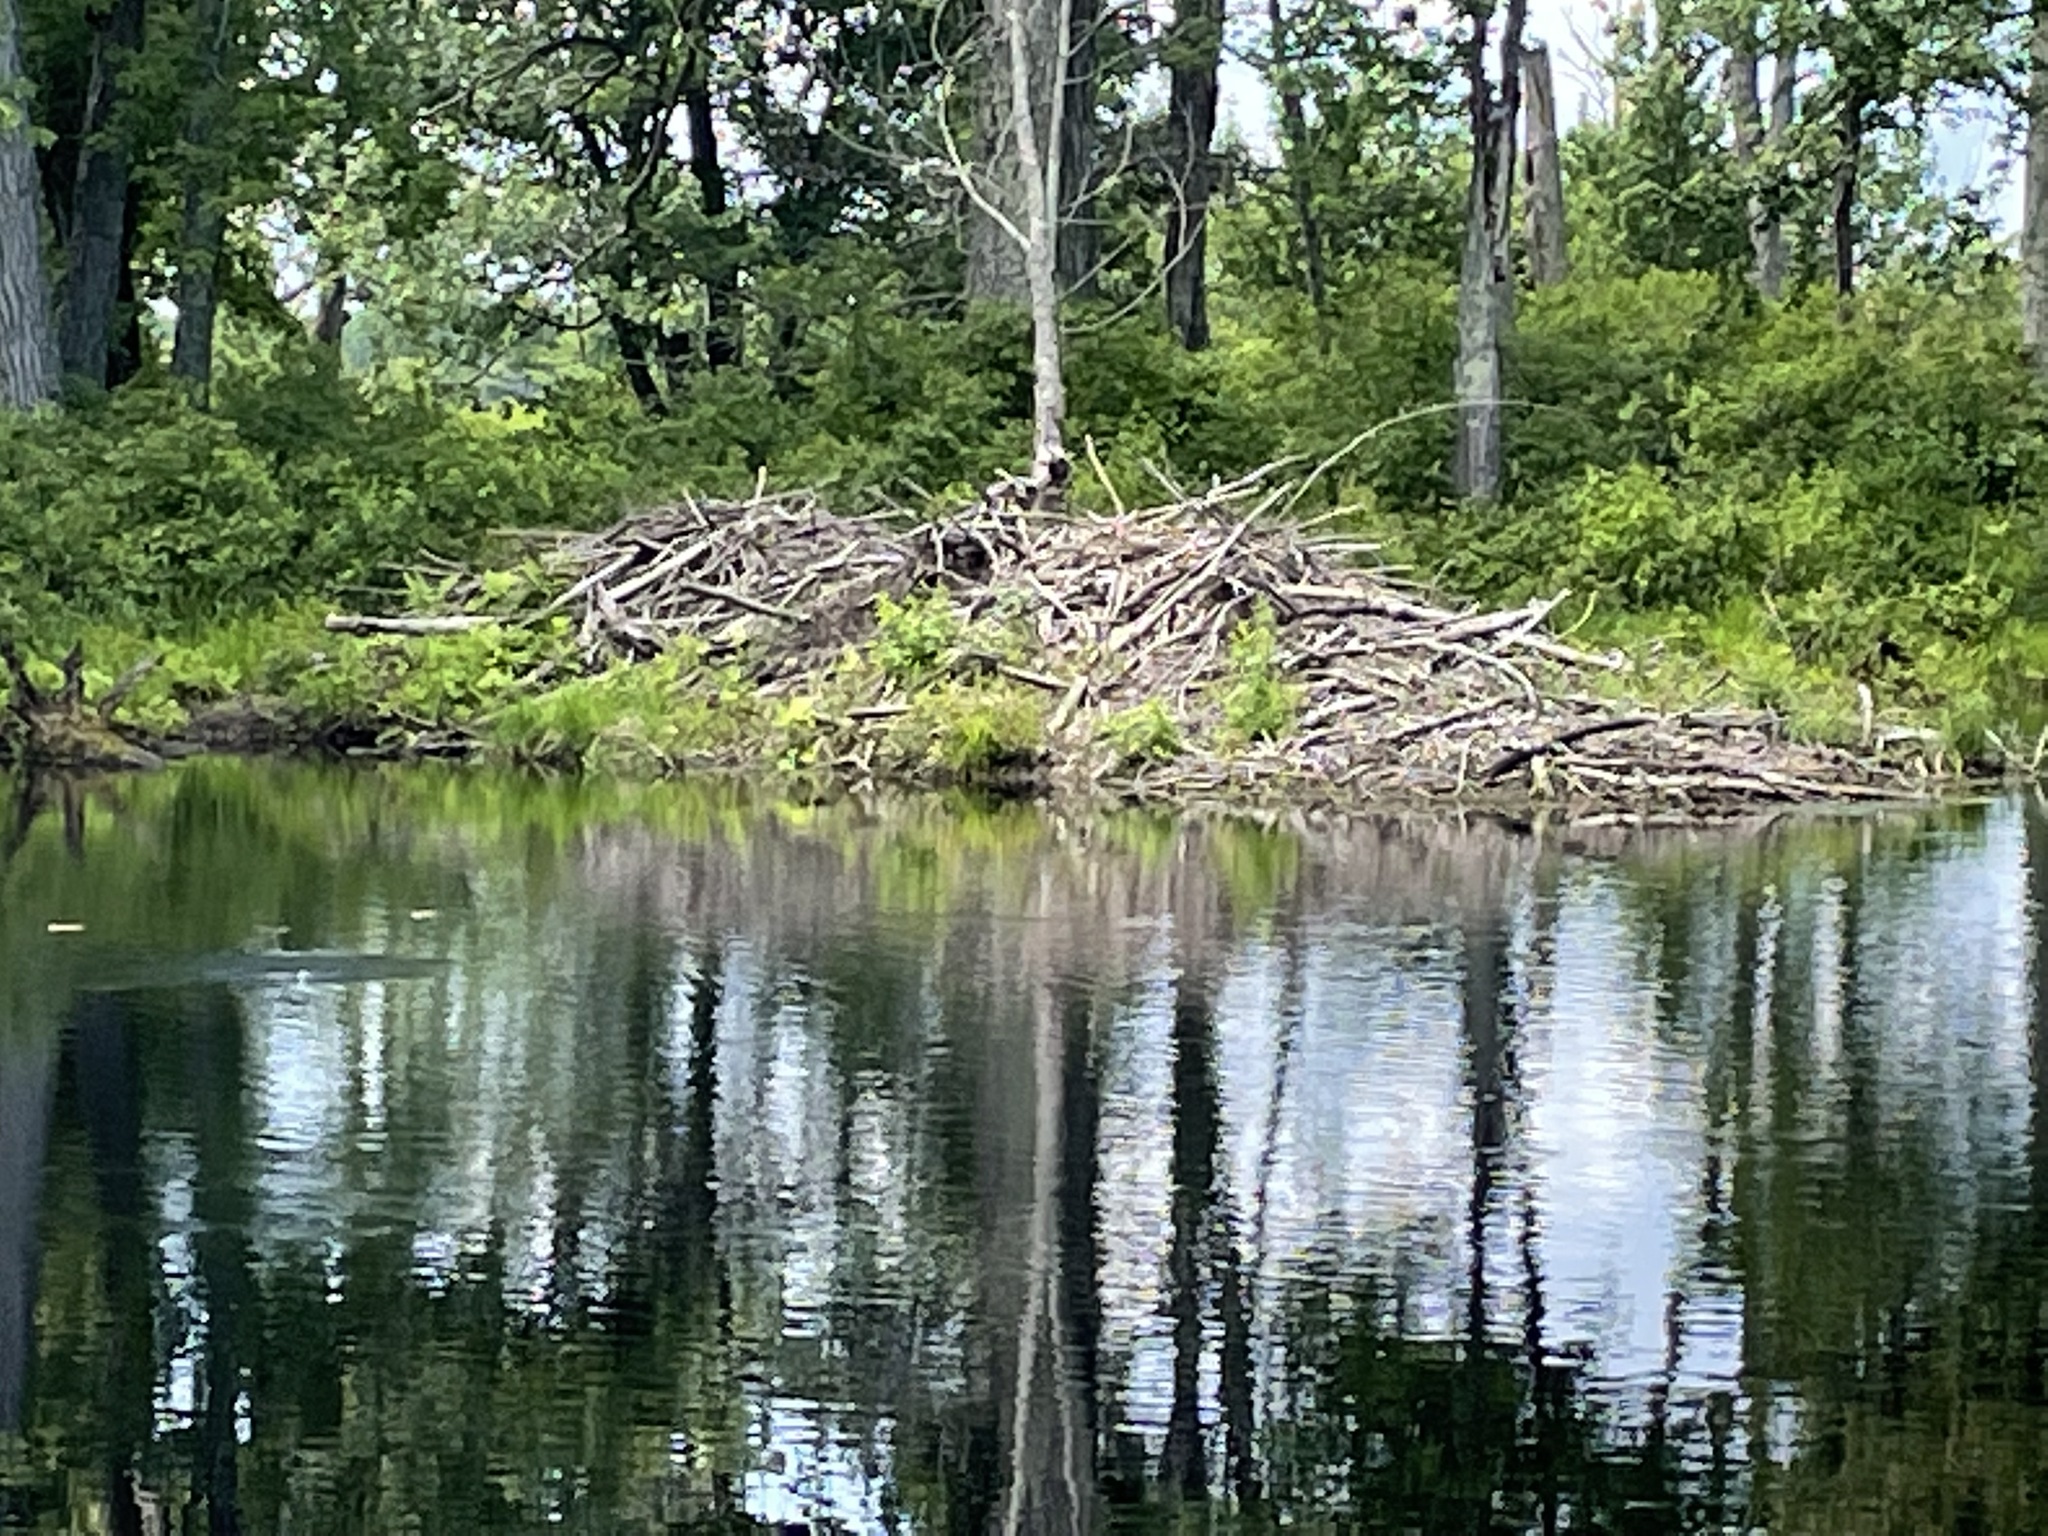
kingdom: Animalia
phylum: Chordata
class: Mammalia
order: Rodentia
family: Castoridae
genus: Castor
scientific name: Castor canadensis
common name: American beaver
